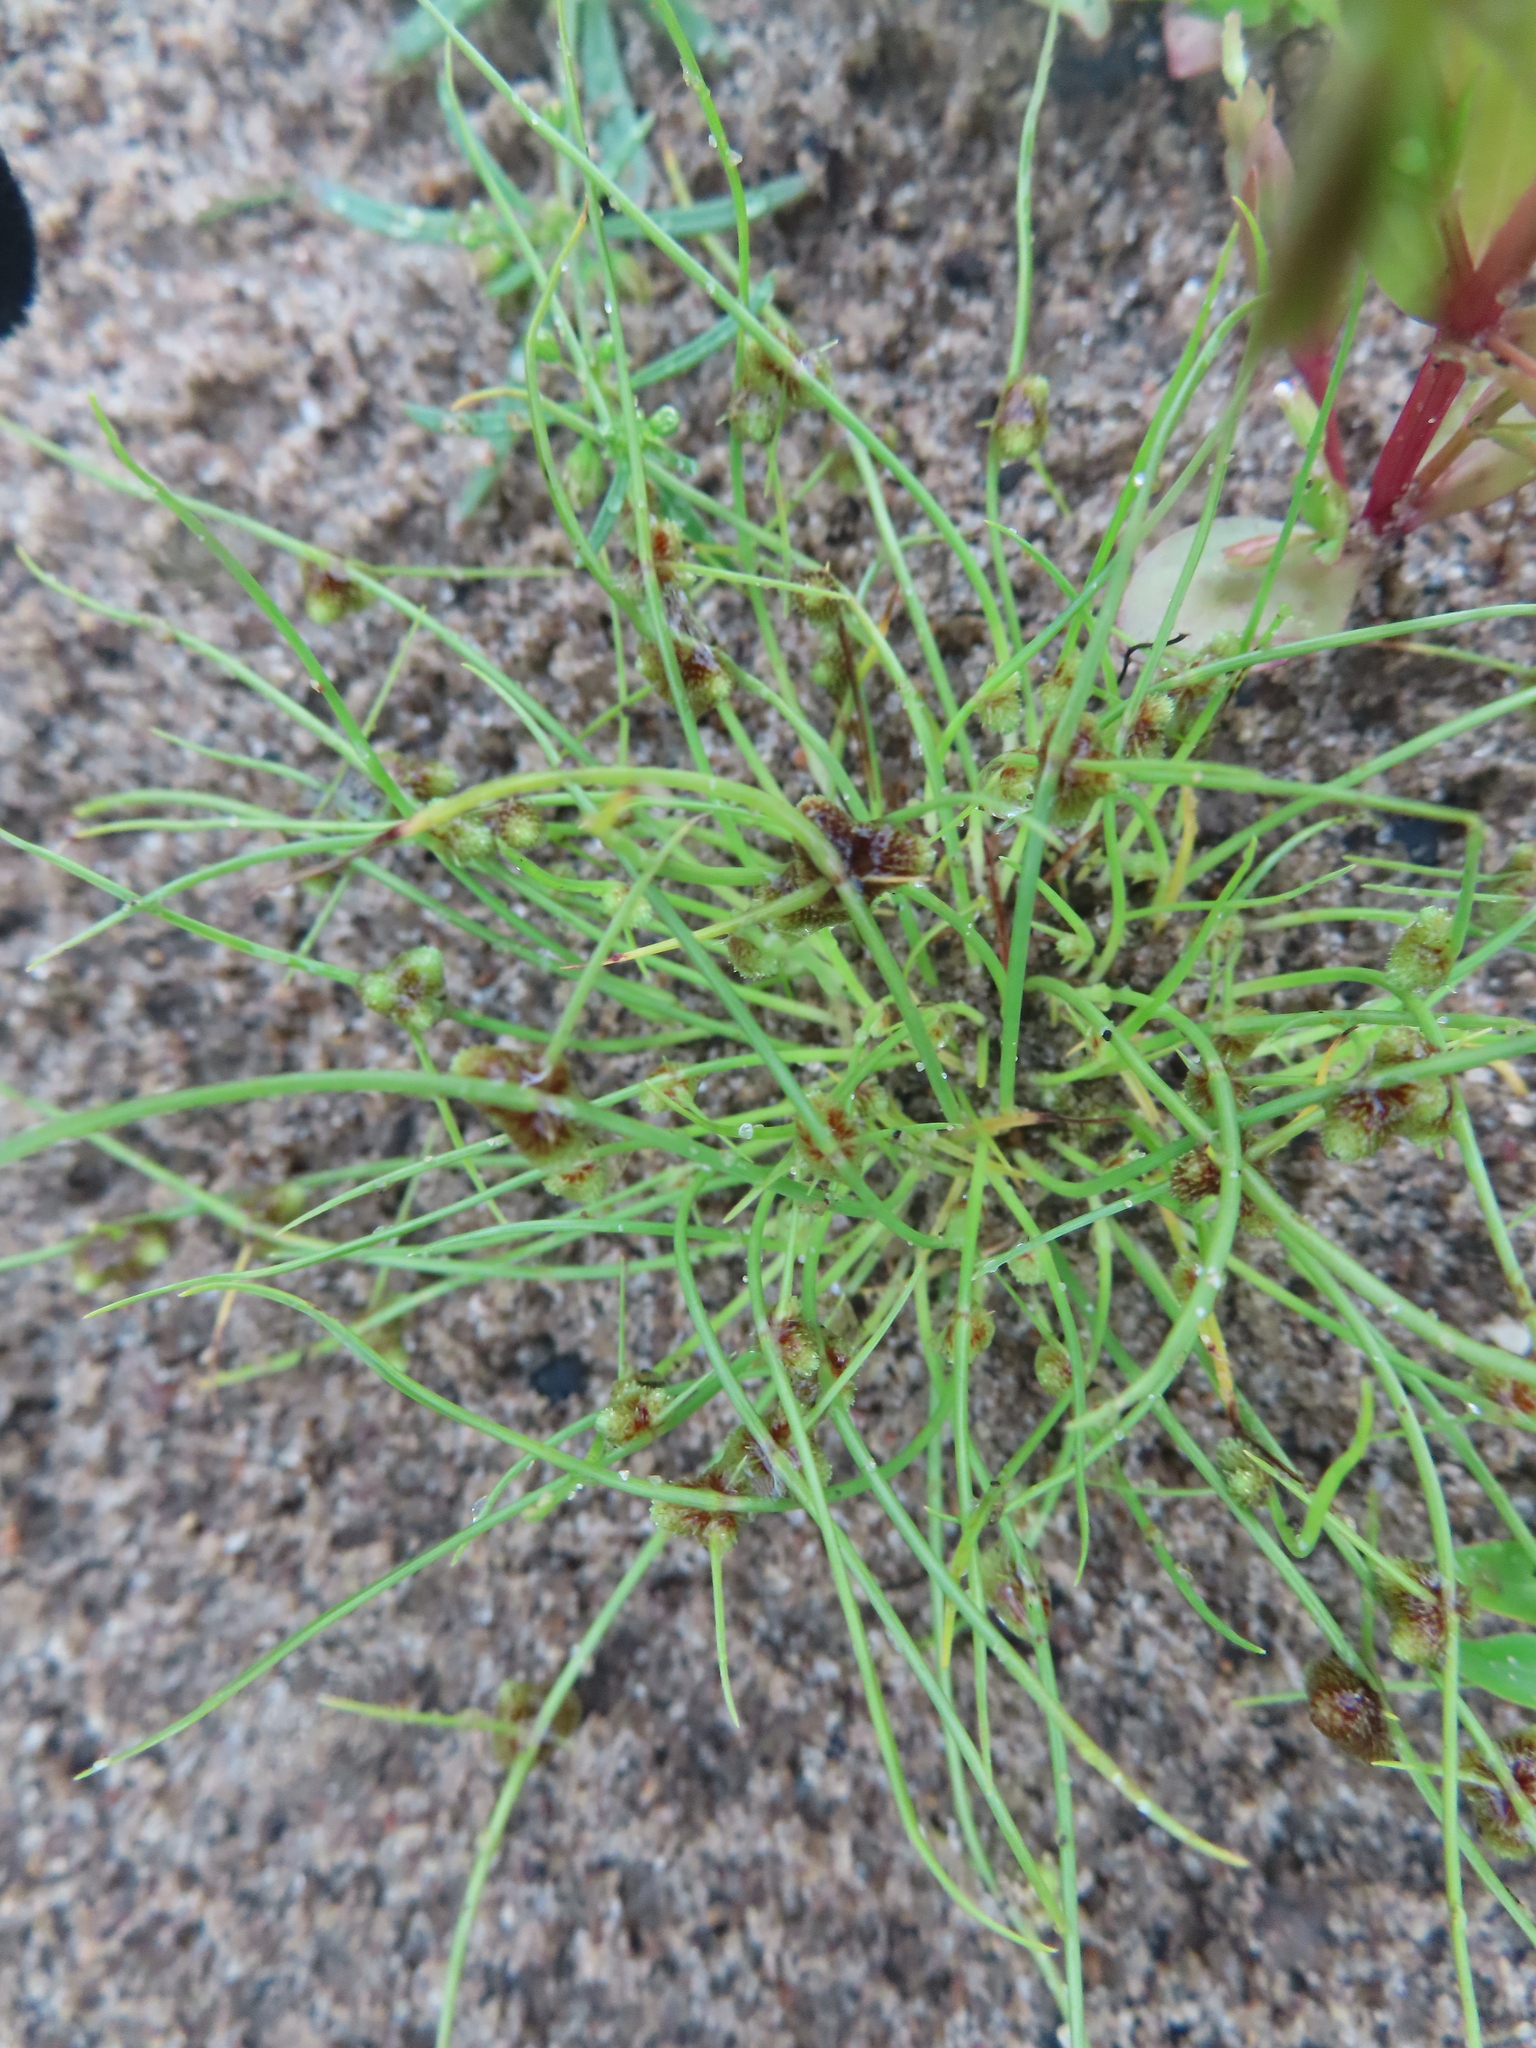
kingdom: Plantae
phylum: Tracheophyta
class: Liliopsida
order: Poales
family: Cyperaceae
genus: Cyperus
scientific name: Cyperus subsquarrosus
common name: Dwarf bulrush
